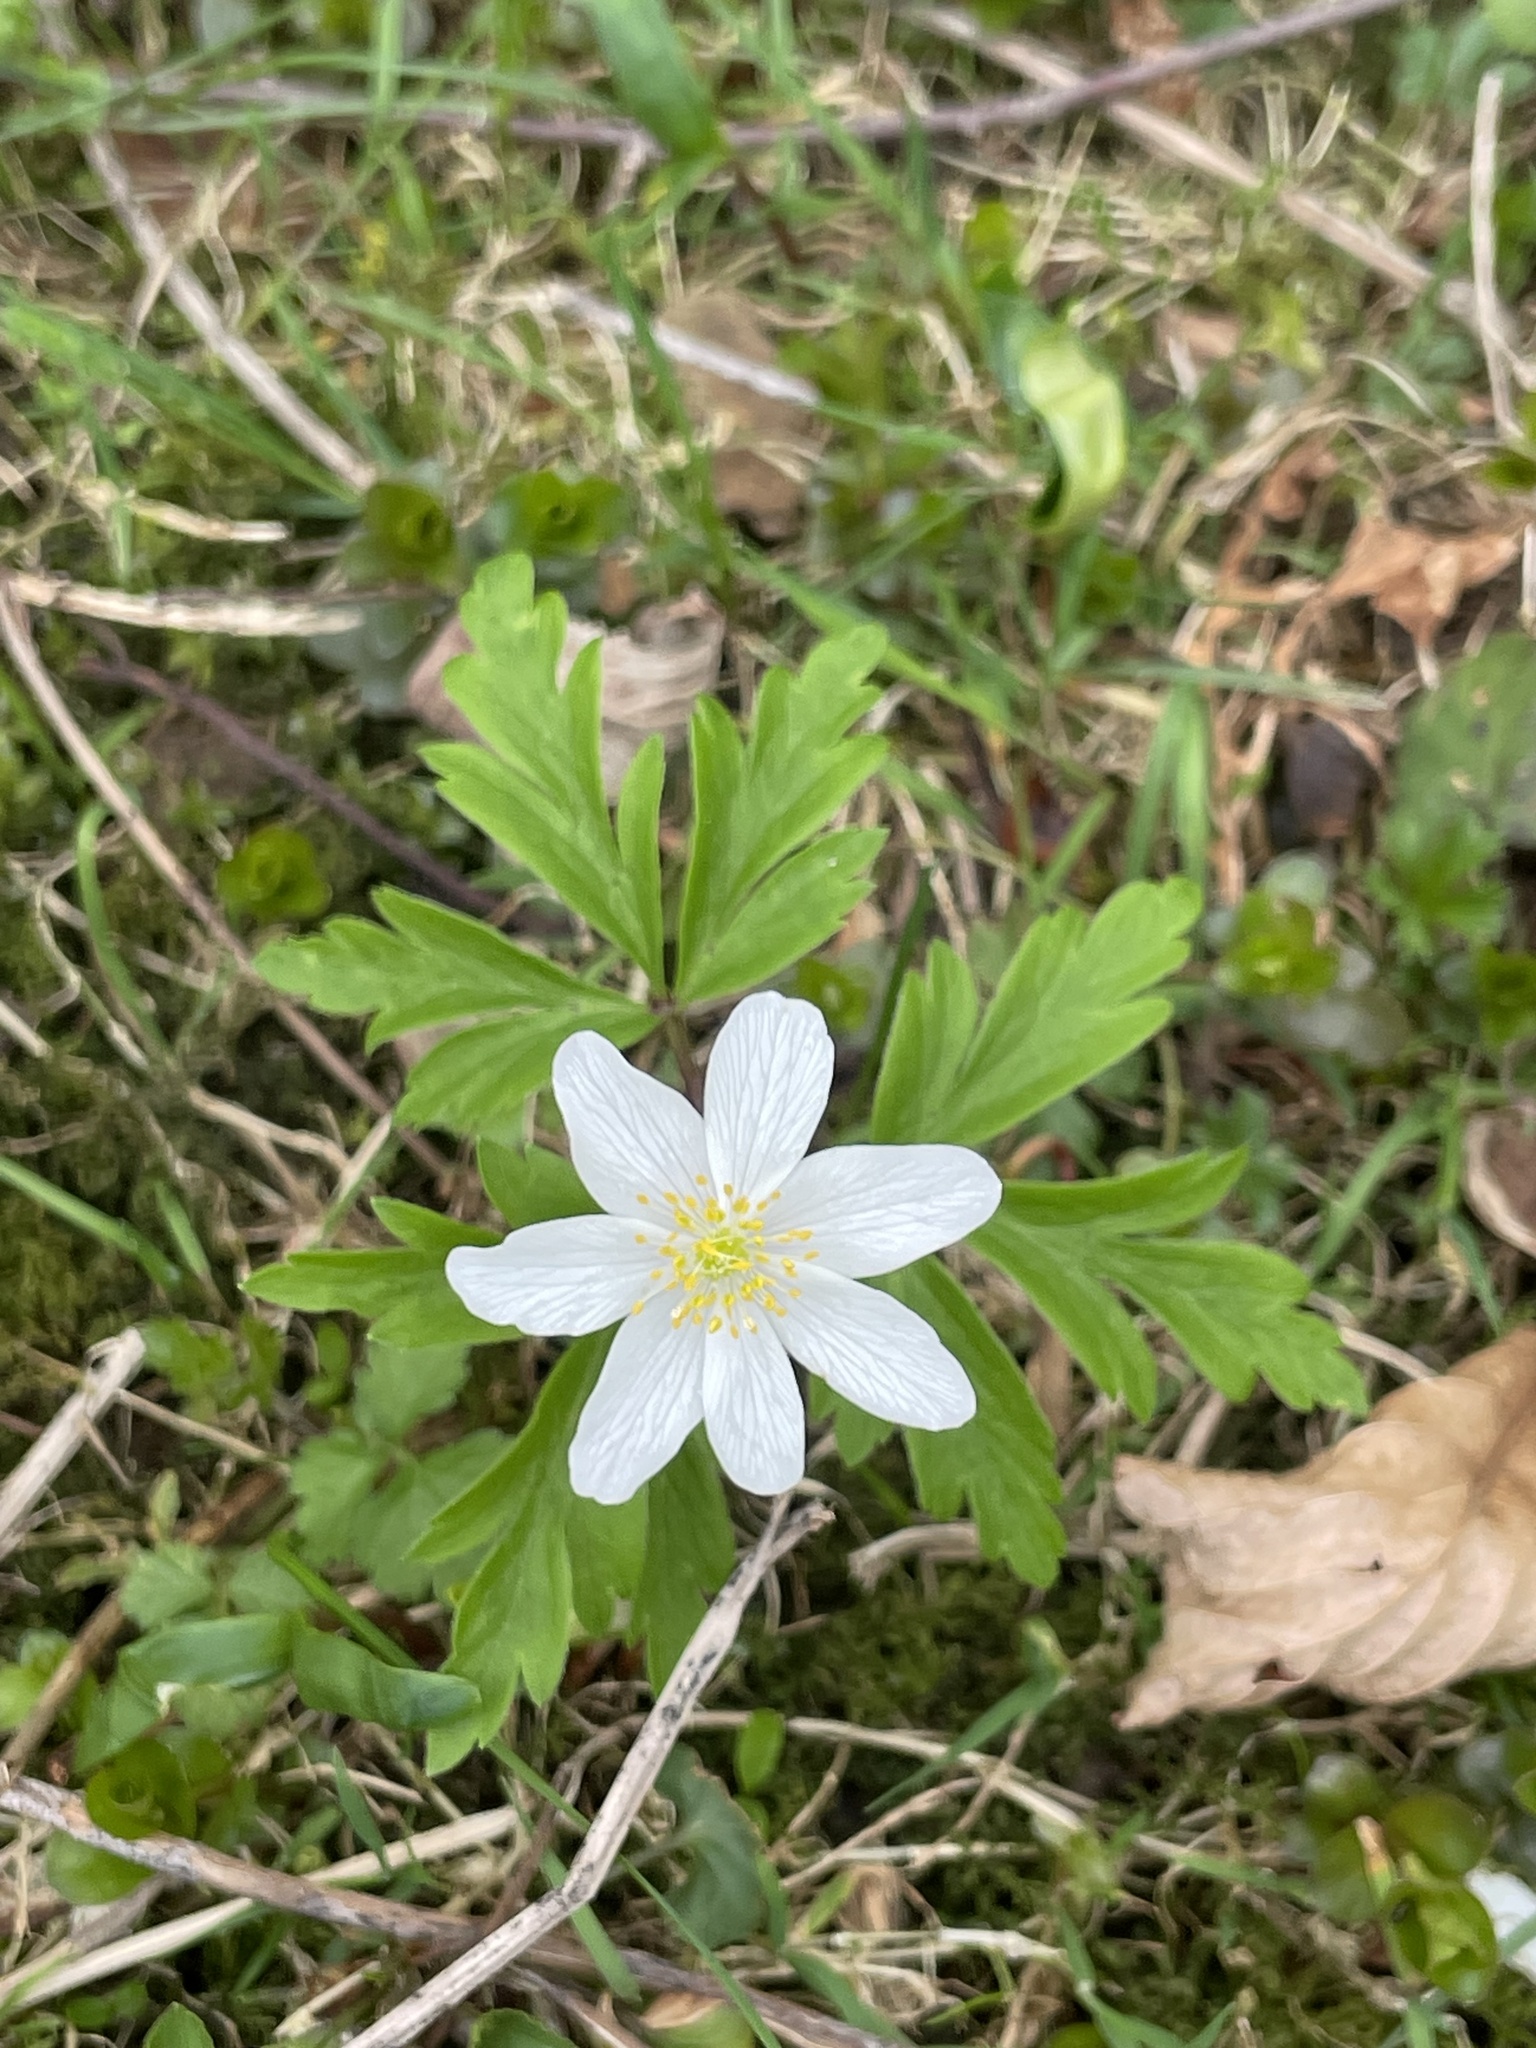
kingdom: Plantae
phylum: Tracheophyta
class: Magnoliopsida
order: Ranunculales
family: Ranunculaceae
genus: Anemone
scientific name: Anemone nemorosa
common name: Wood anemone
